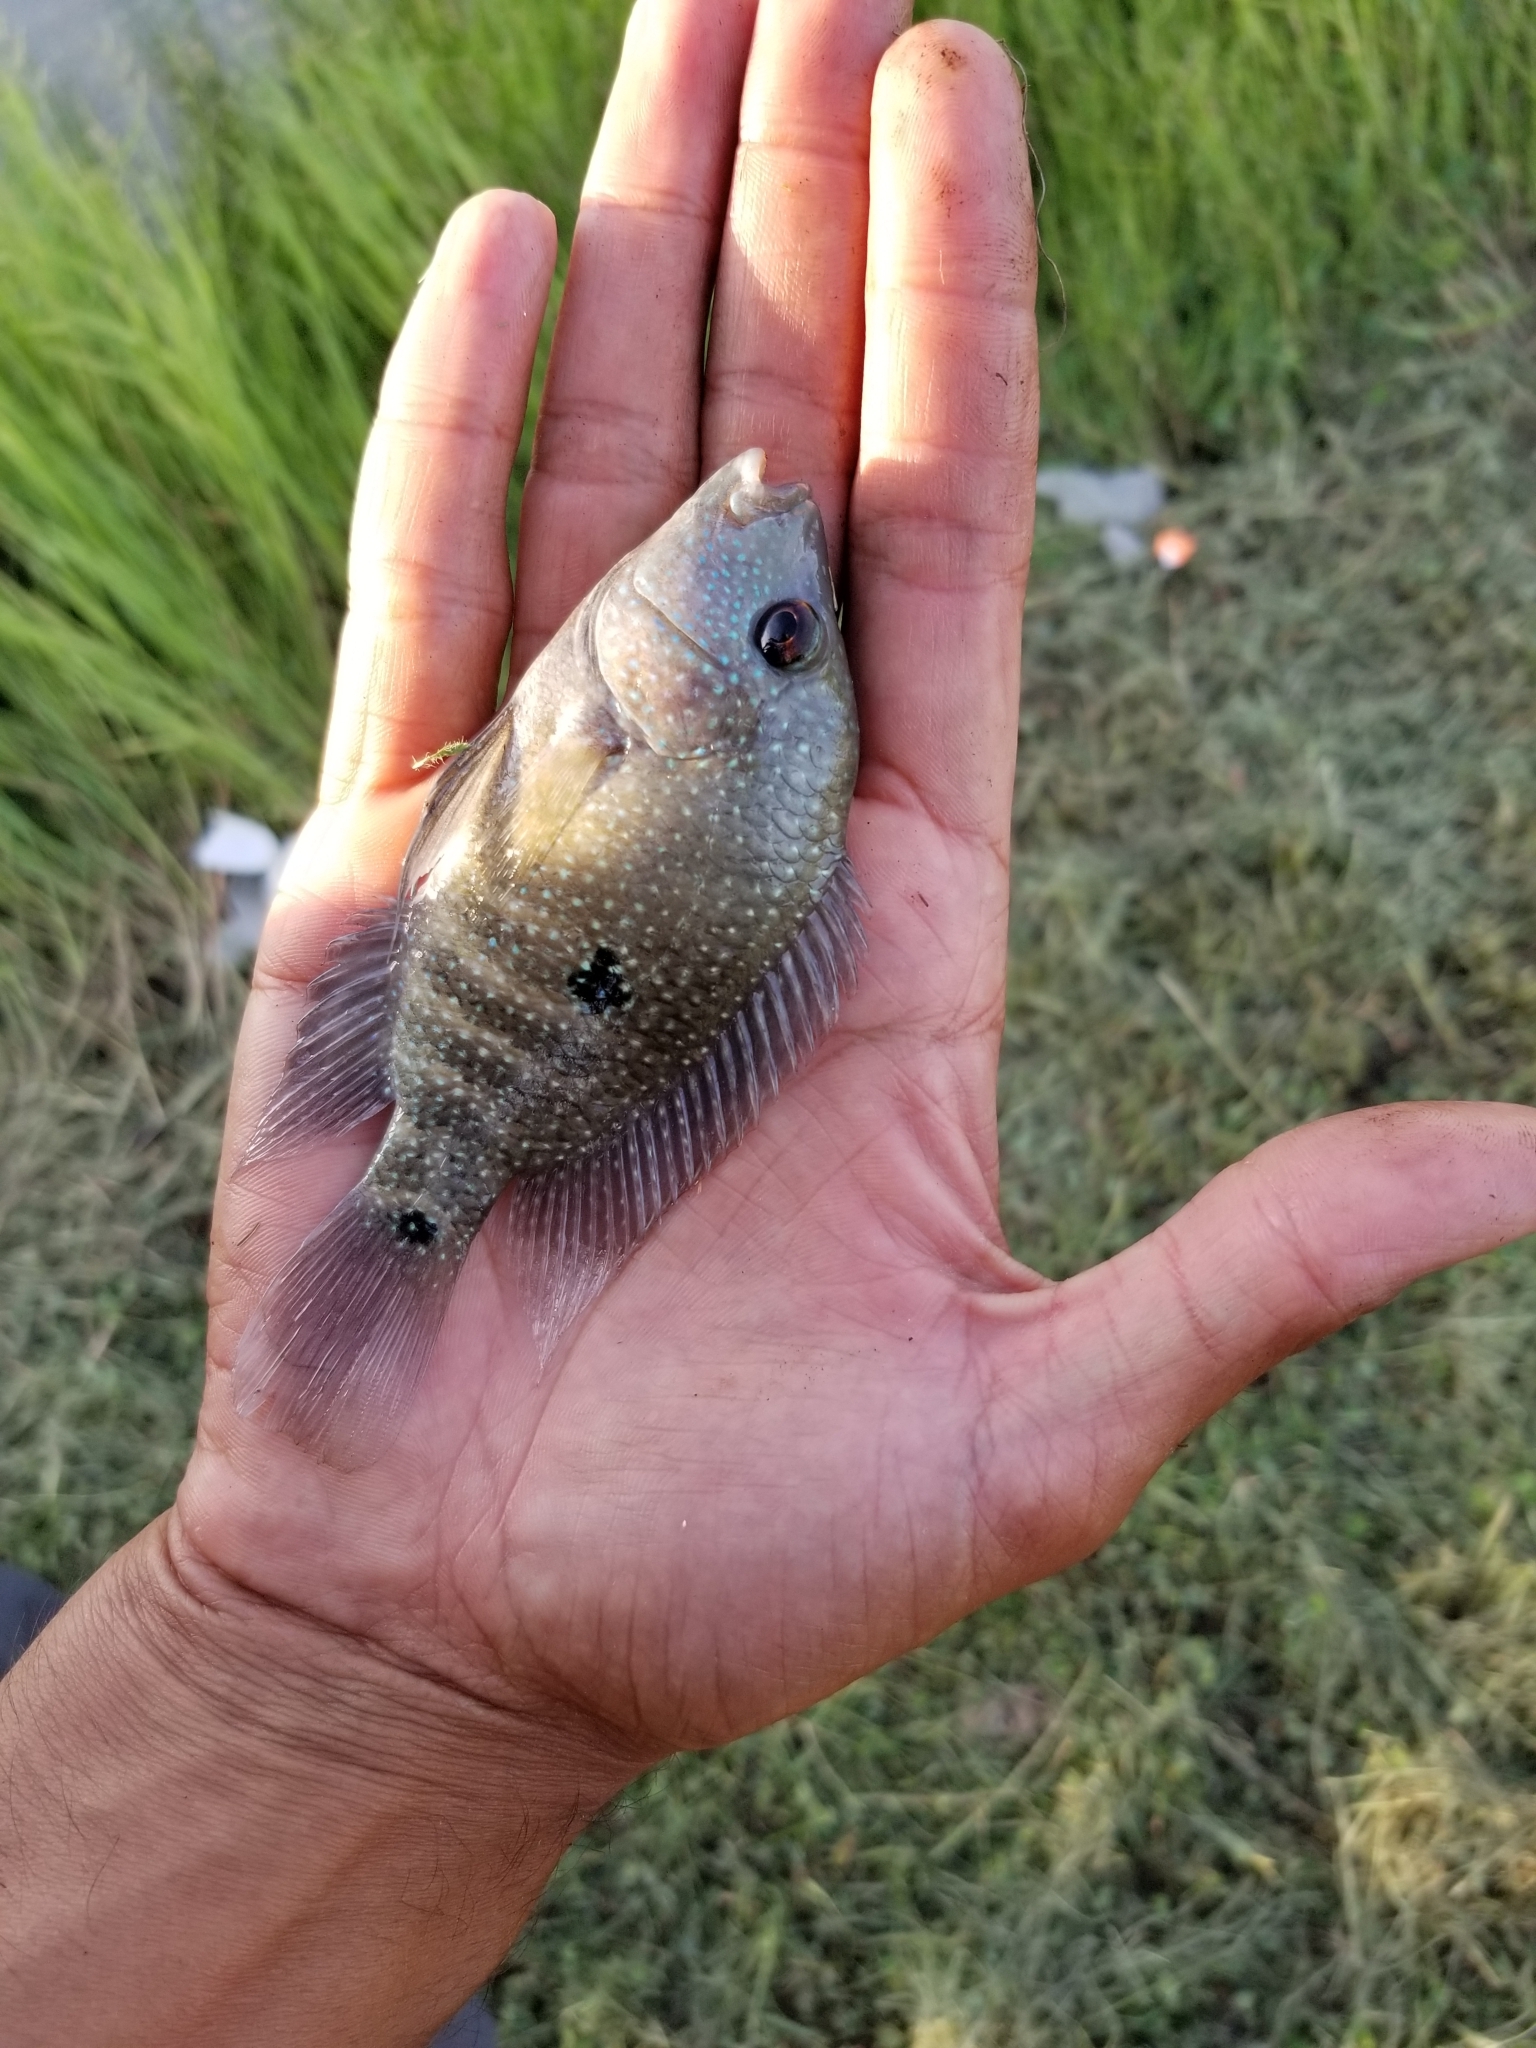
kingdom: Animalia
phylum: Chordata
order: Perciformes
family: Cichlidae
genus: Herichthys
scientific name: Herichthys cyanoguttatus
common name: Rio grande cichlid
